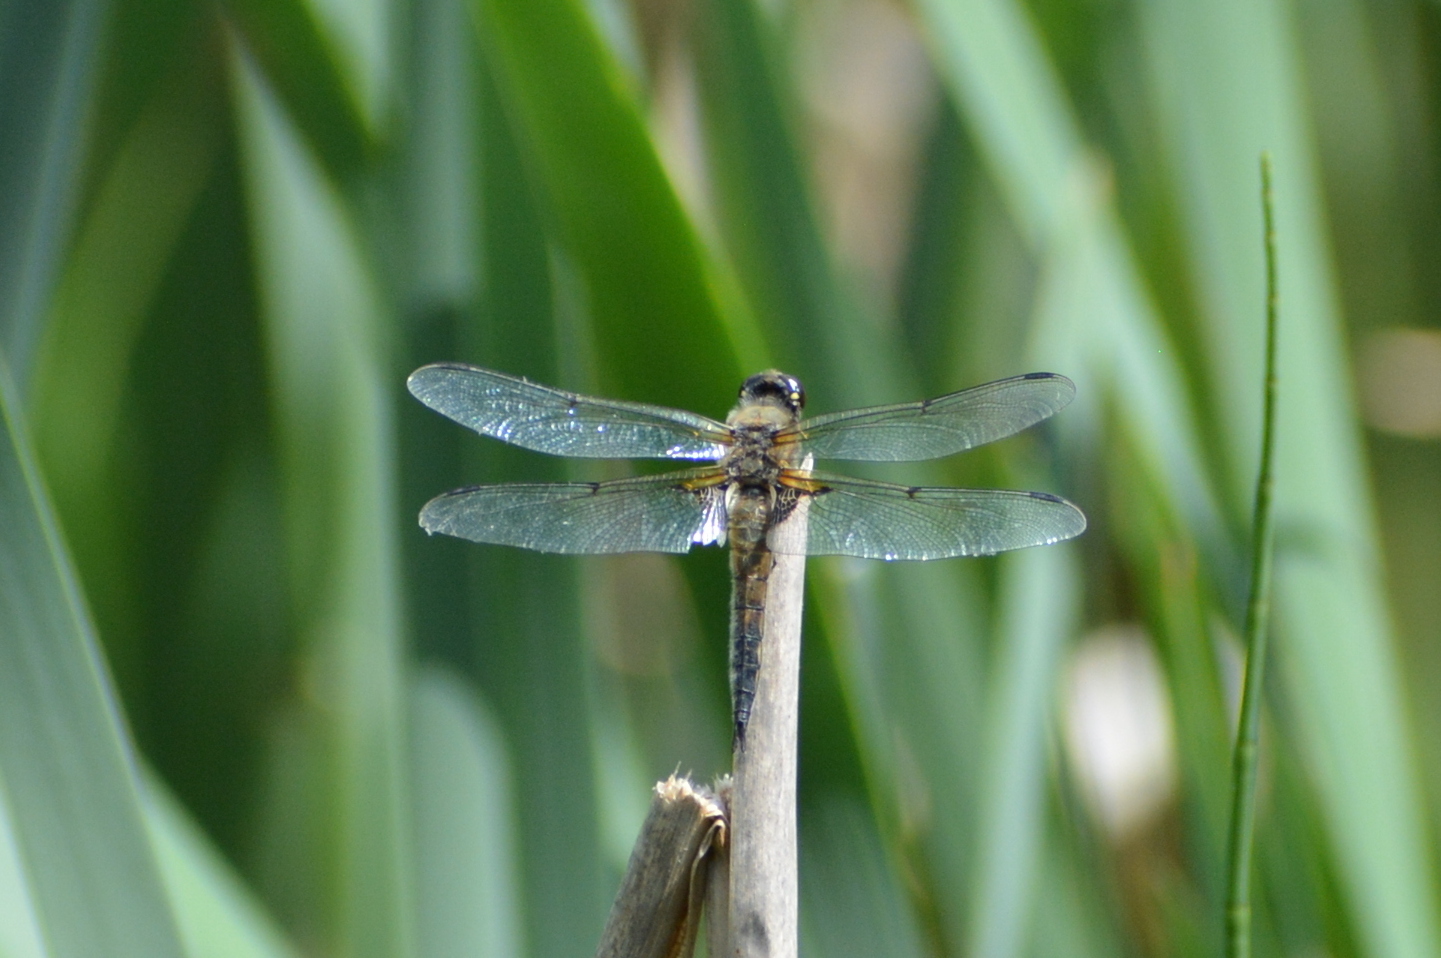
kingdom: Animalia
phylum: Arthropoda
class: Insecta
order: Odonata
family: Libellulidae
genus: Libellula
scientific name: Libellula quadrimaculata
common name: Four-spotted chaser
